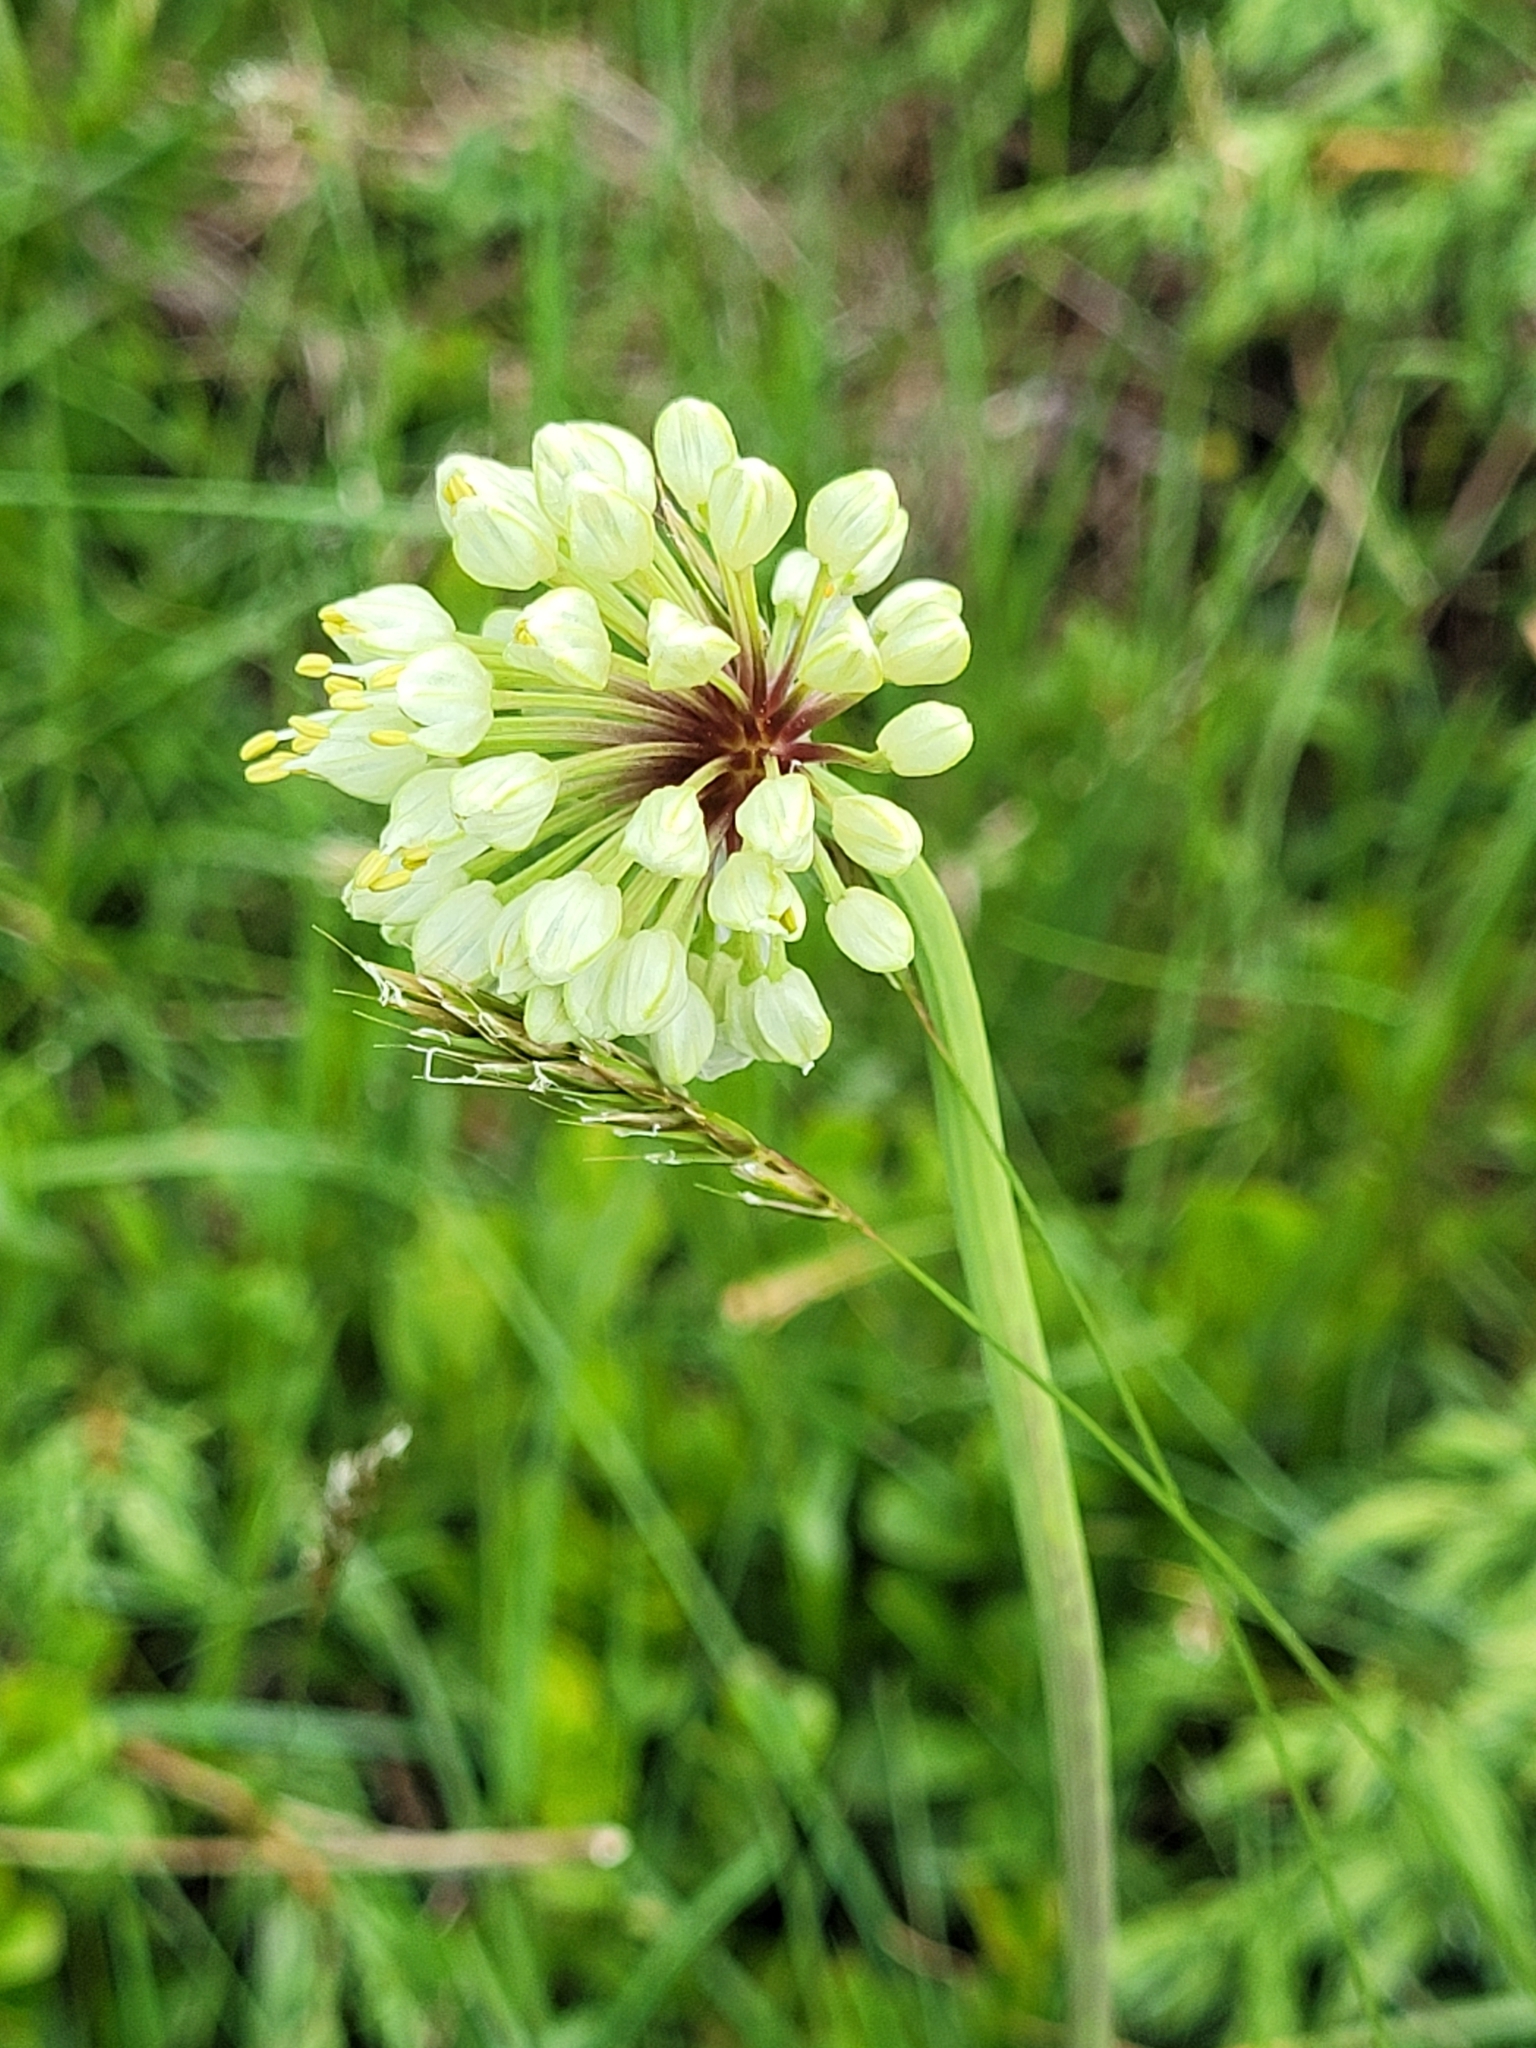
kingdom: Plantae
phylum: Tracheophyta
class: Liliopsida
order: Asparagales
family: Amaryllidaceae
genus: Allium
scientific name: Allium victorialis
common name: Alpine leek
